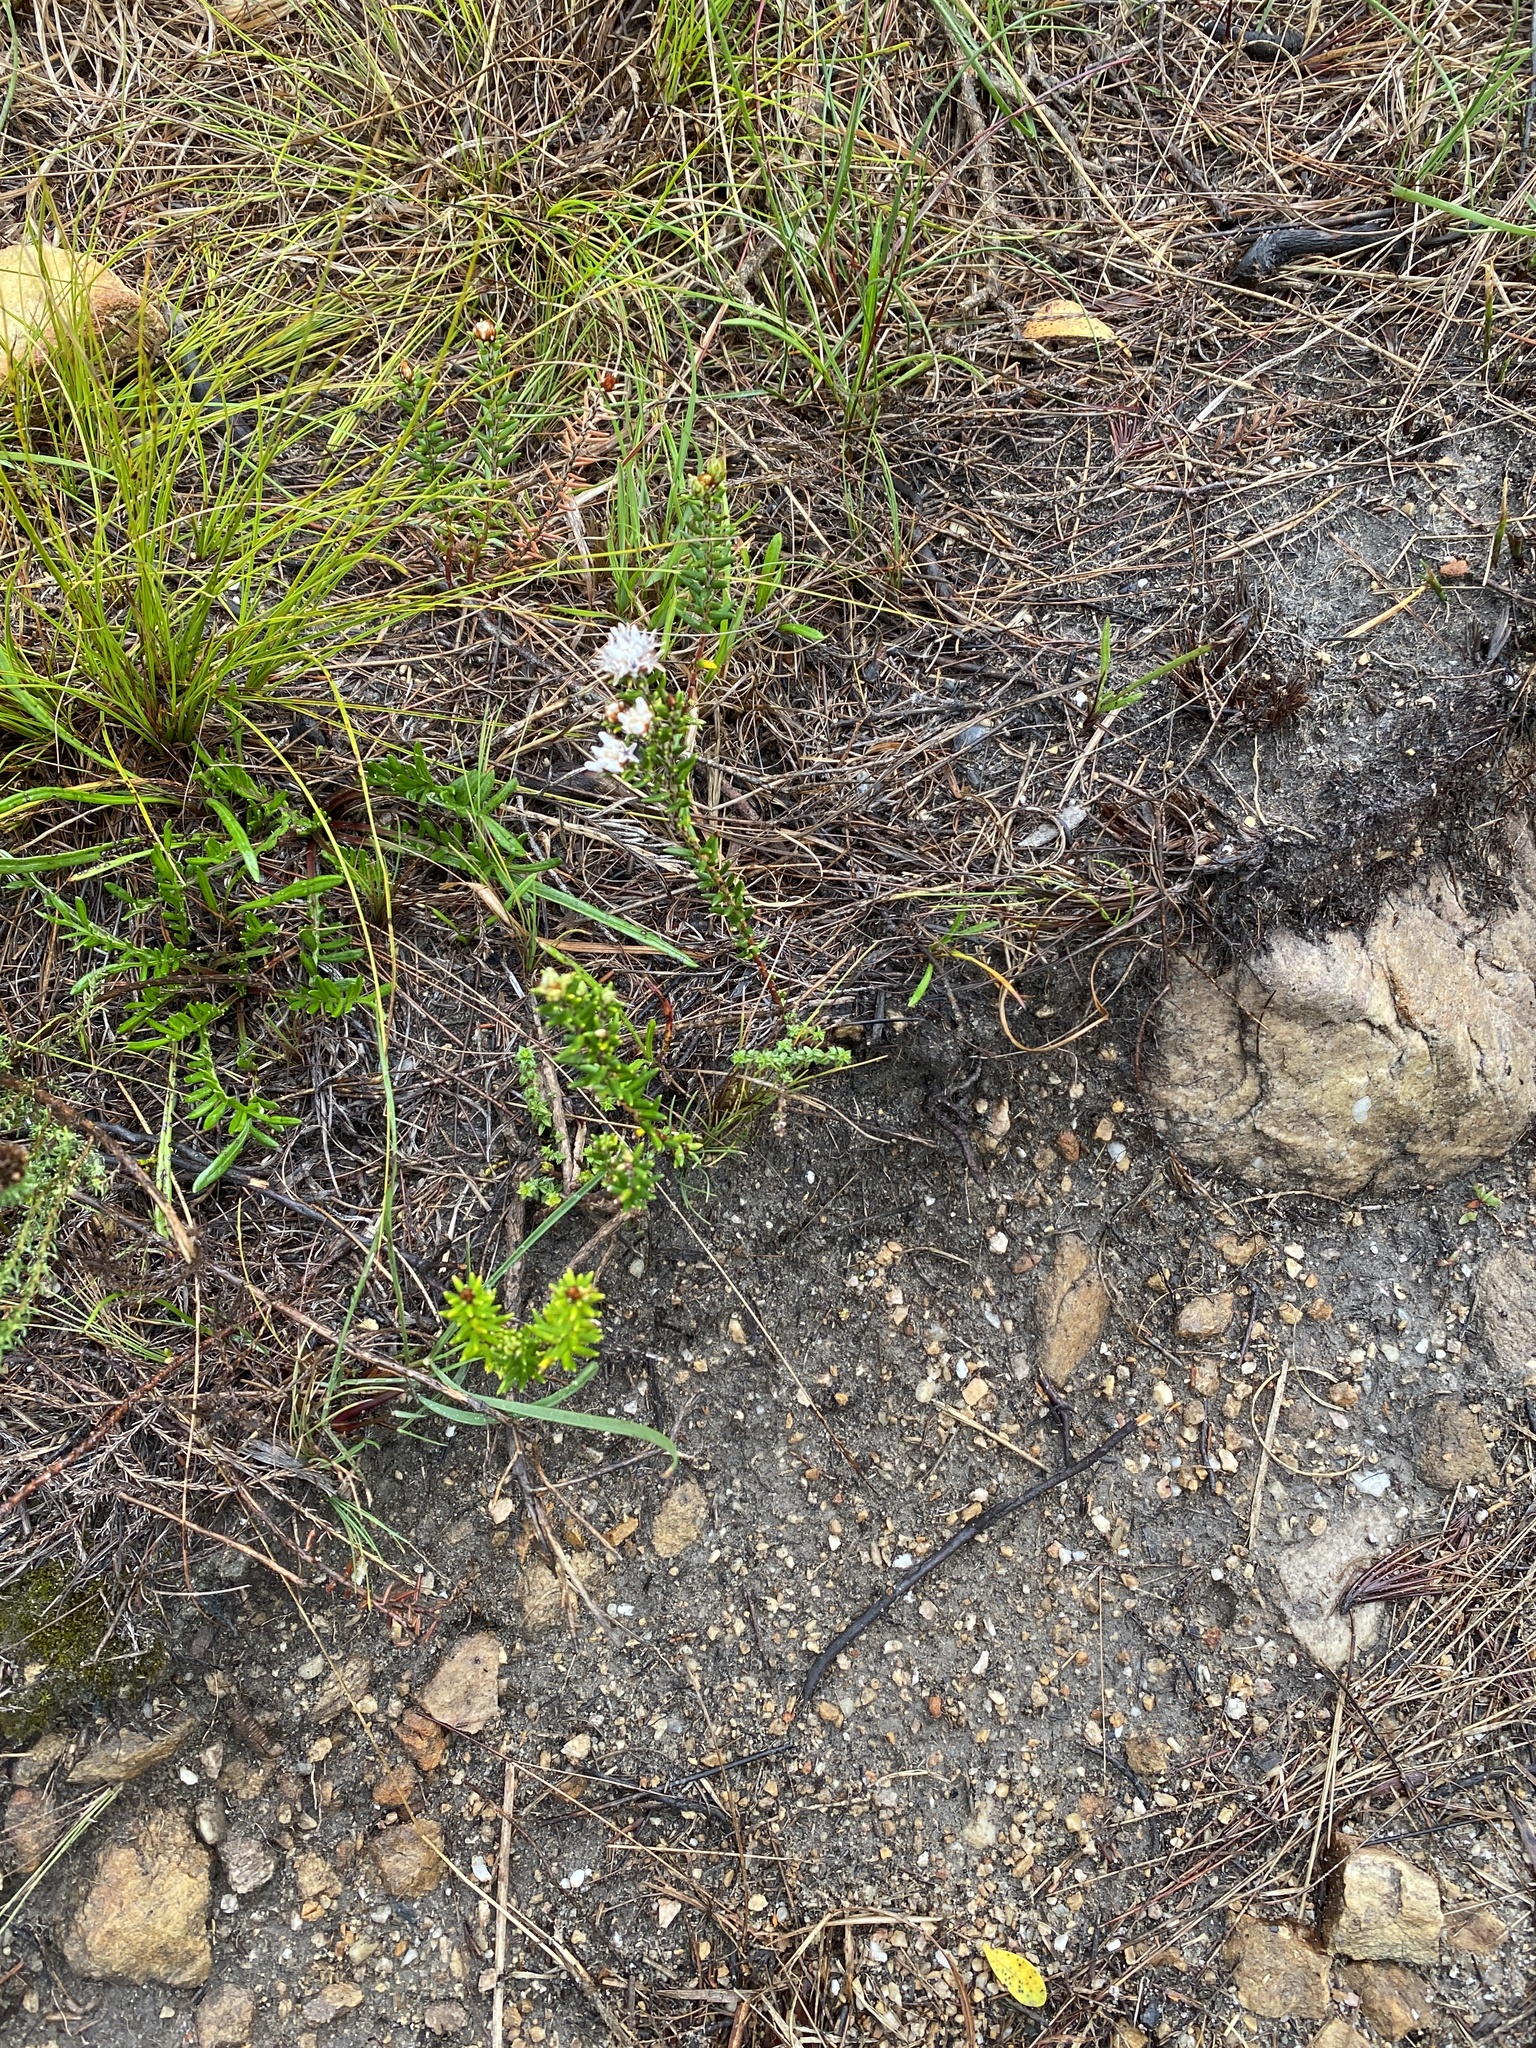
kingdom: Plantae
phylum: Tracheophyta
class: Magnoliopsida
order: Rosales
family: Rhamnaceae
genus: Trichocephalus
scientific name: Trichocephalus stipularis
